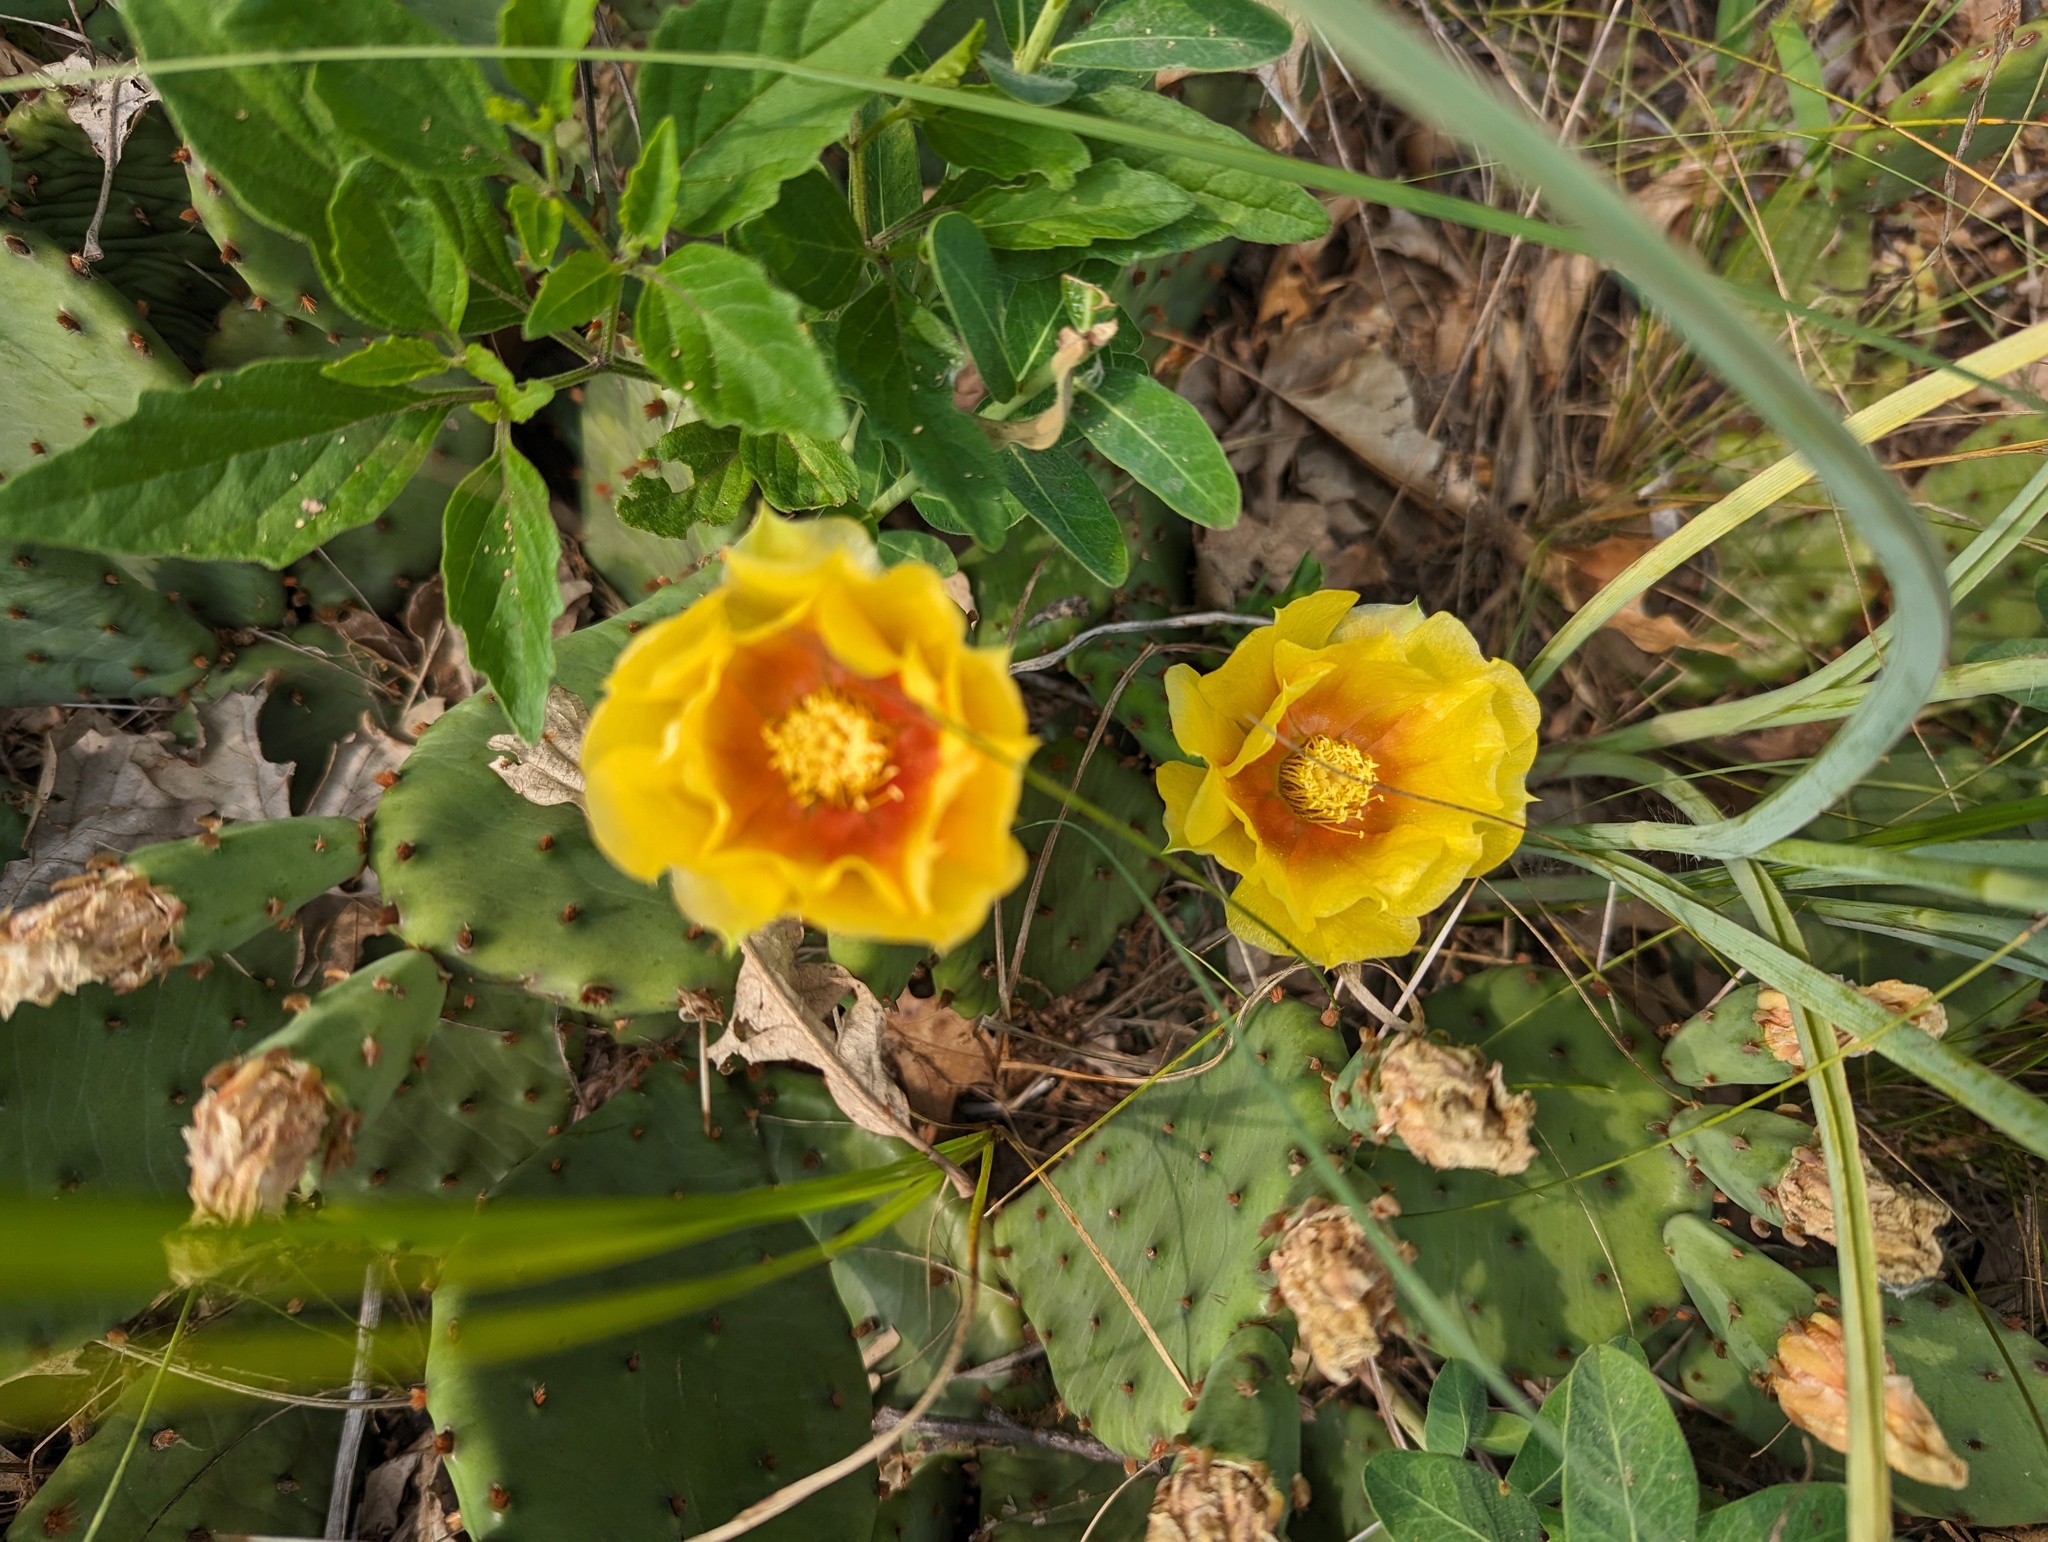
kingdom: Plantae
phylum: Tracheophyta
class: Magnoliopsida
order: Caryophyllales
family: Cactaceae
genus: Opuntia
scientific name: Opuntia humifusa
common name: Eastern prickly-pear
